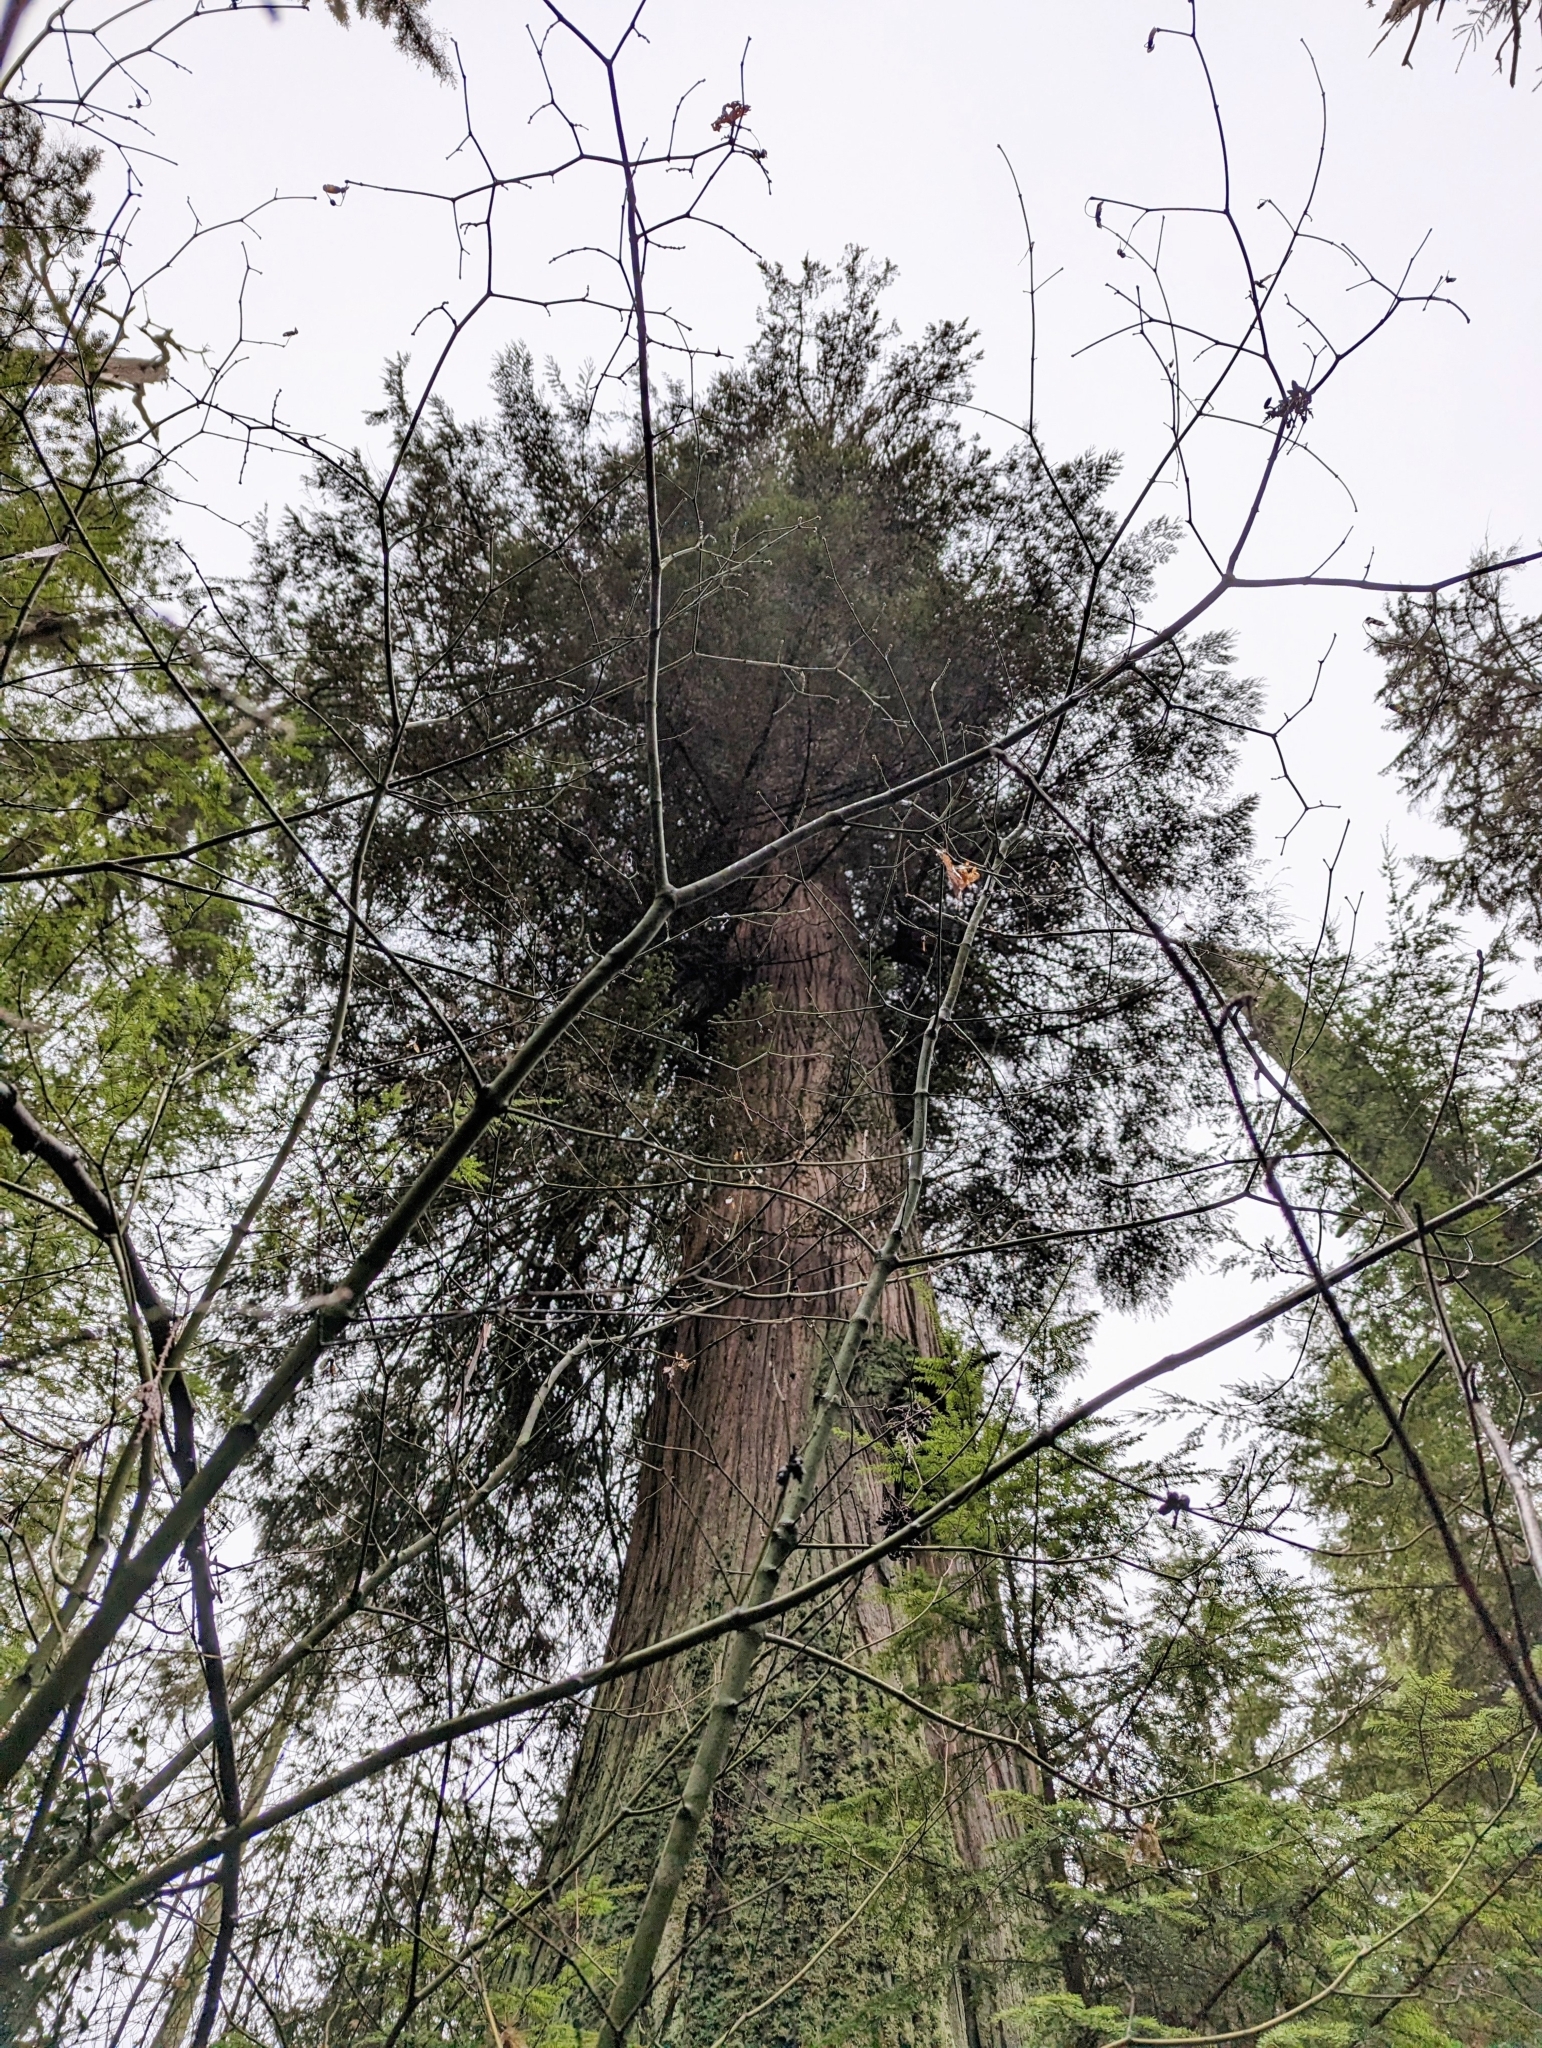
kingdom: Plantae
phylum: Tracheophyta
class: Pinopsida
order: Pinales
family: Cupressaceae
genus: Thuja
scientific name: Thuja plicata
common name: Western red-cedar
